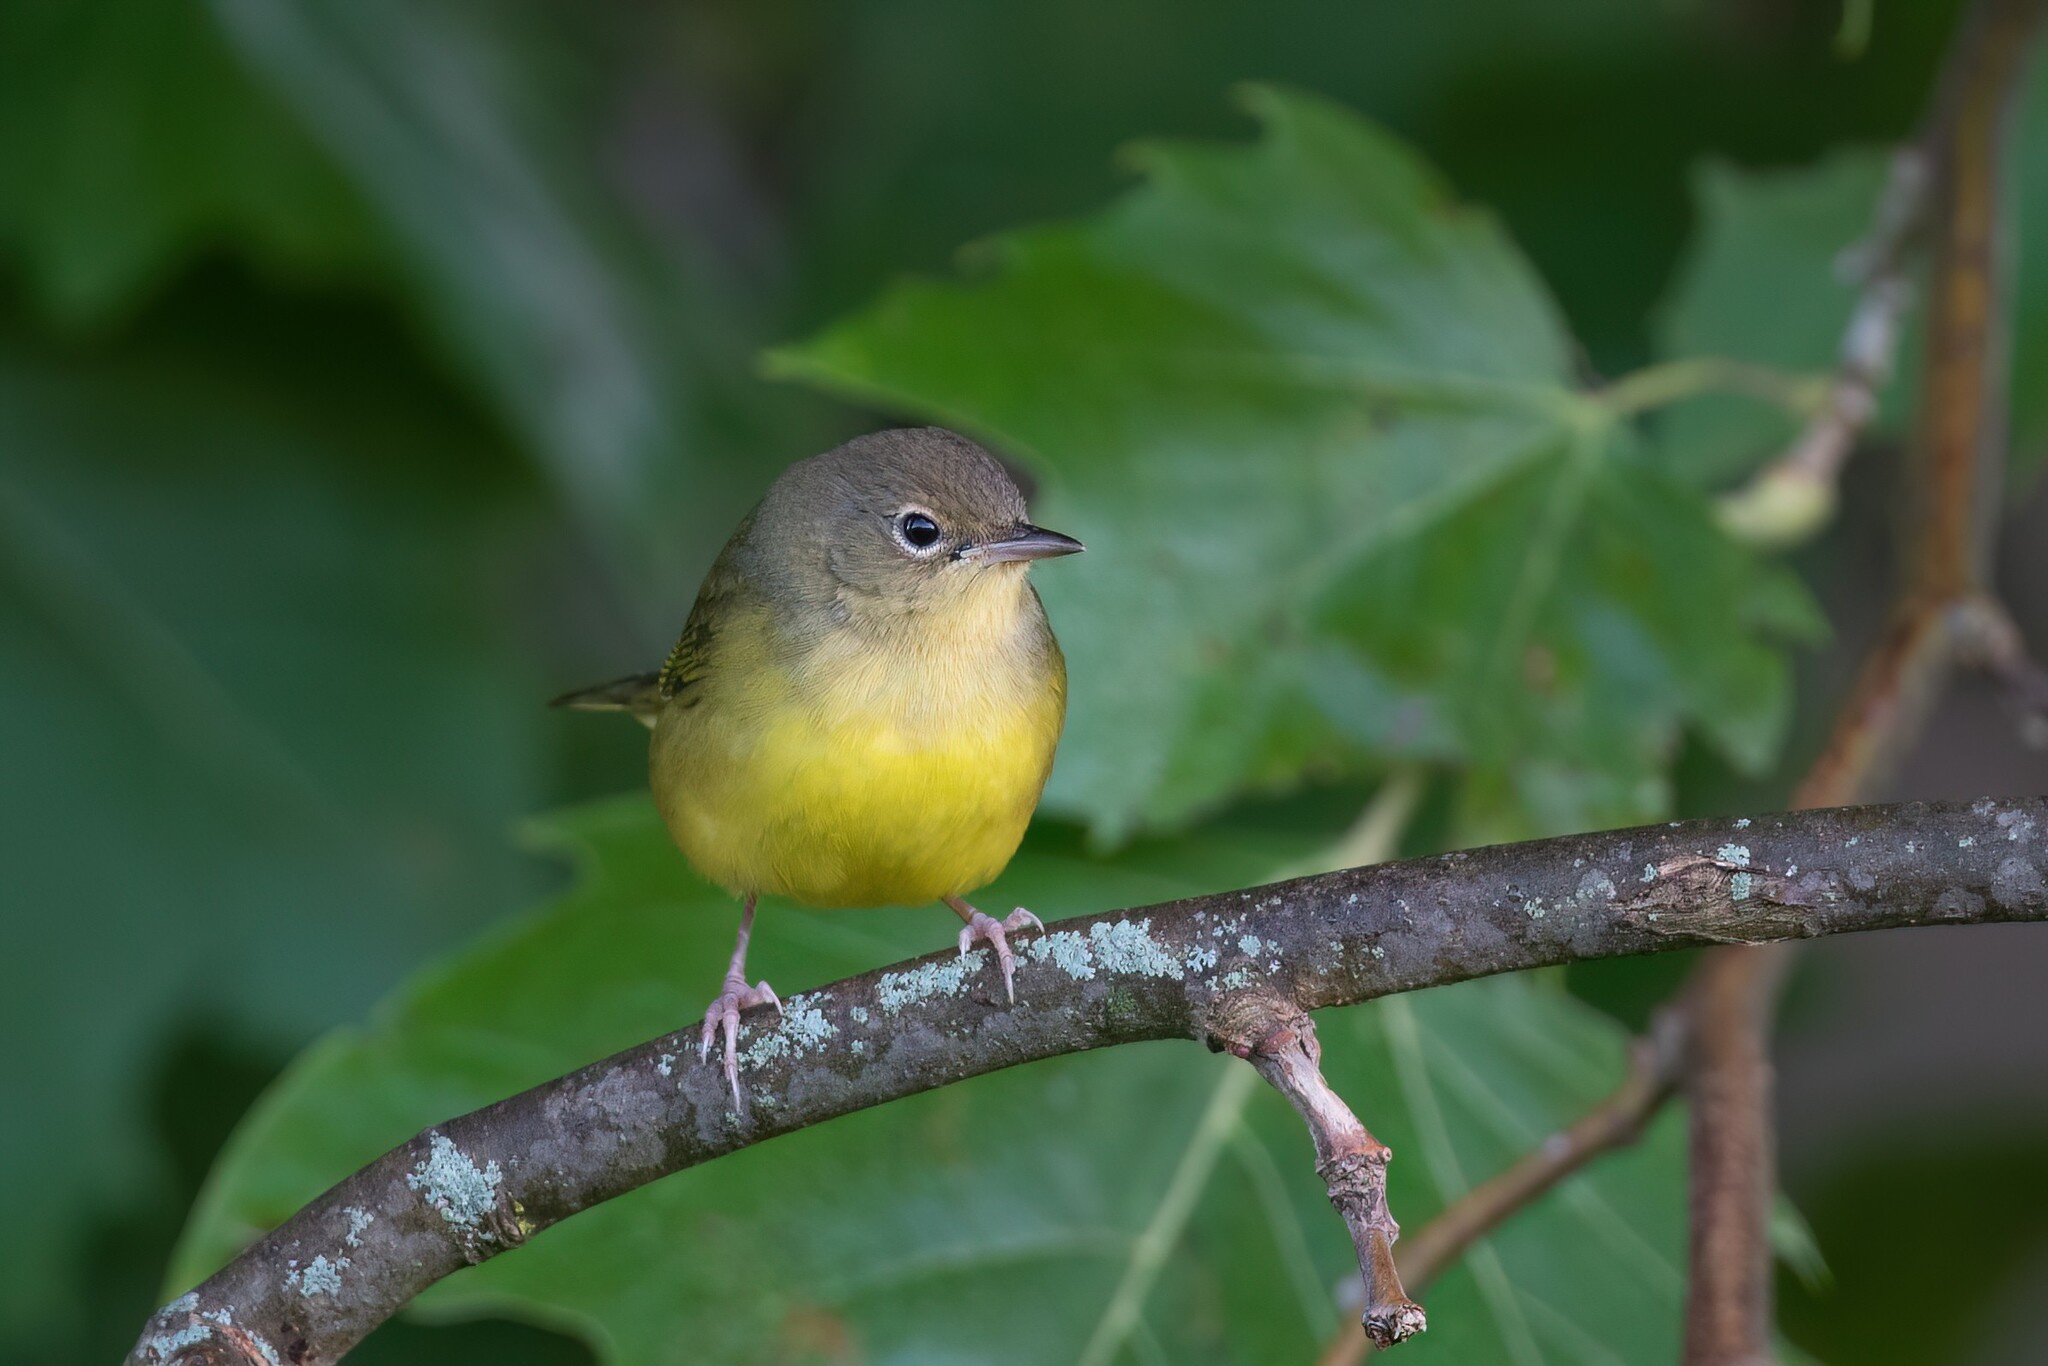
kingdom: Animalia
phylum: Chordata
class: Aves
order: Passeriformes
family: Parulidae
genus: Geothlypis
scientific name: Geothlypis philadelphia
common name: Mourning warbler
